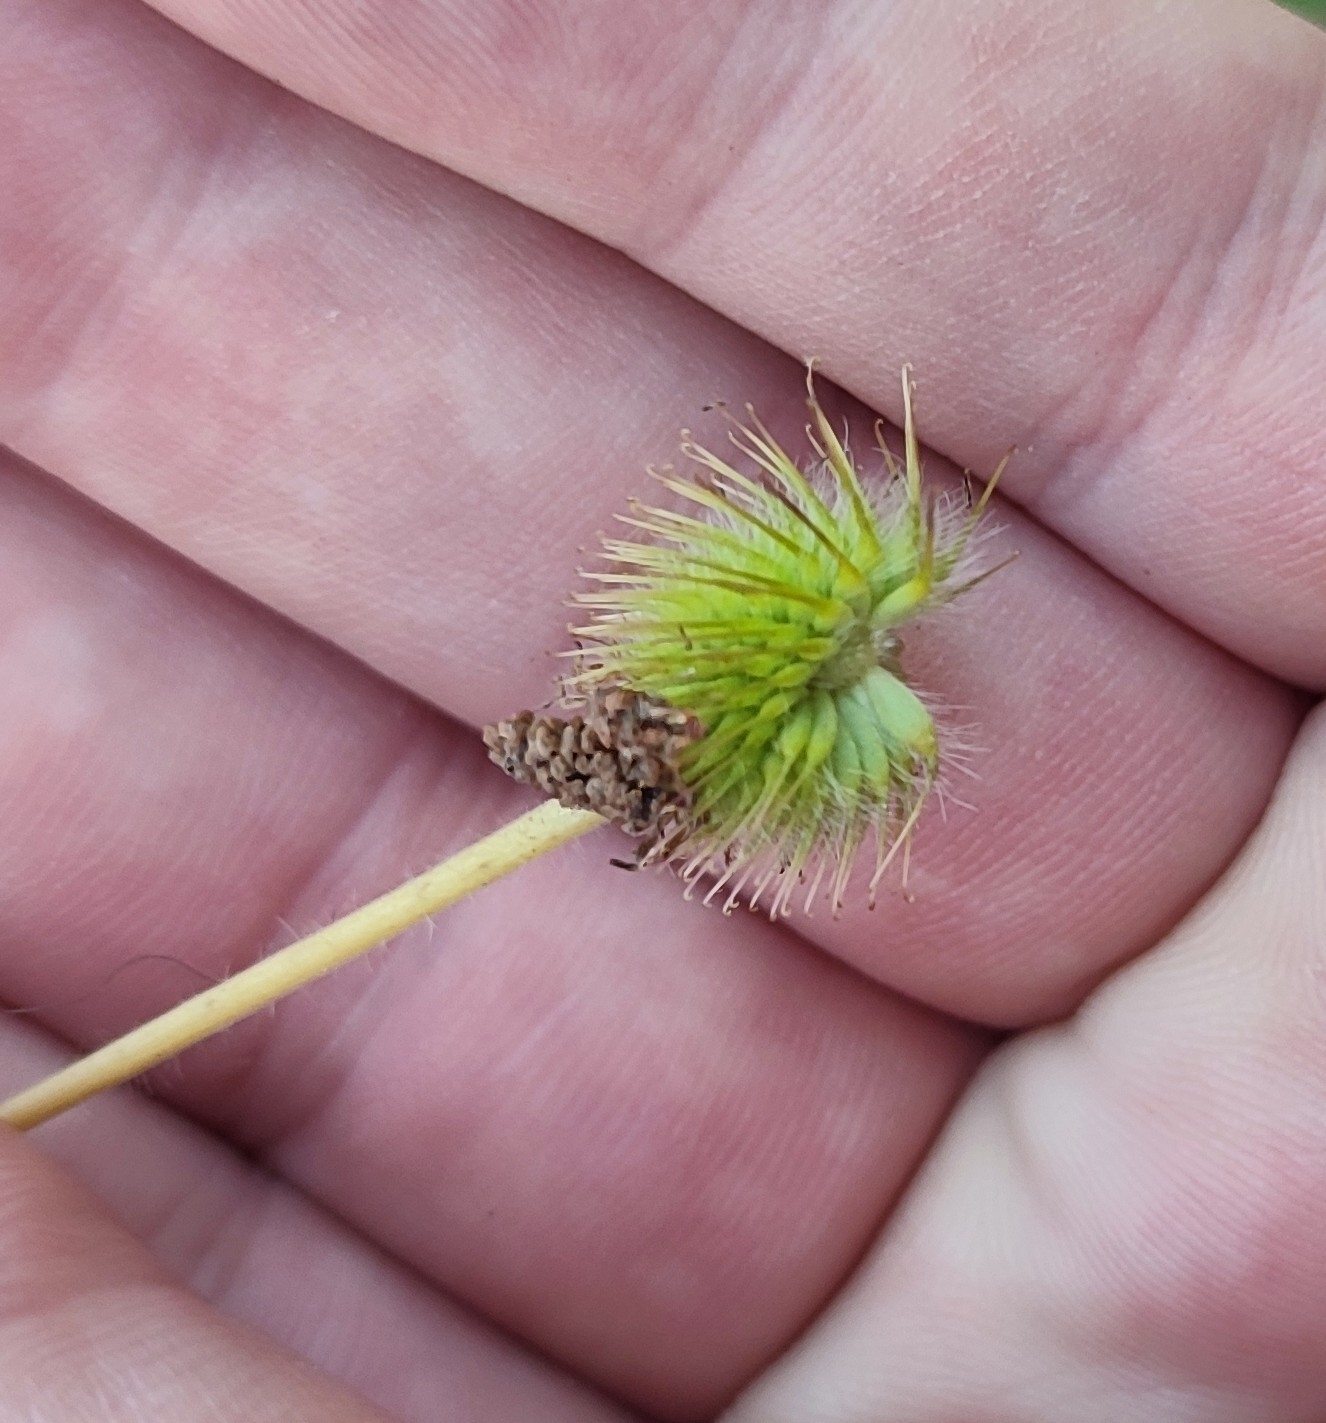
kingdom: Plantae
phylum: Tracheophyta
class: Magnoliopsida
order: Rosales
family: Rosaceae
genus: Geum
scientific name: Geum aleppicum
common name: Yellow avens
